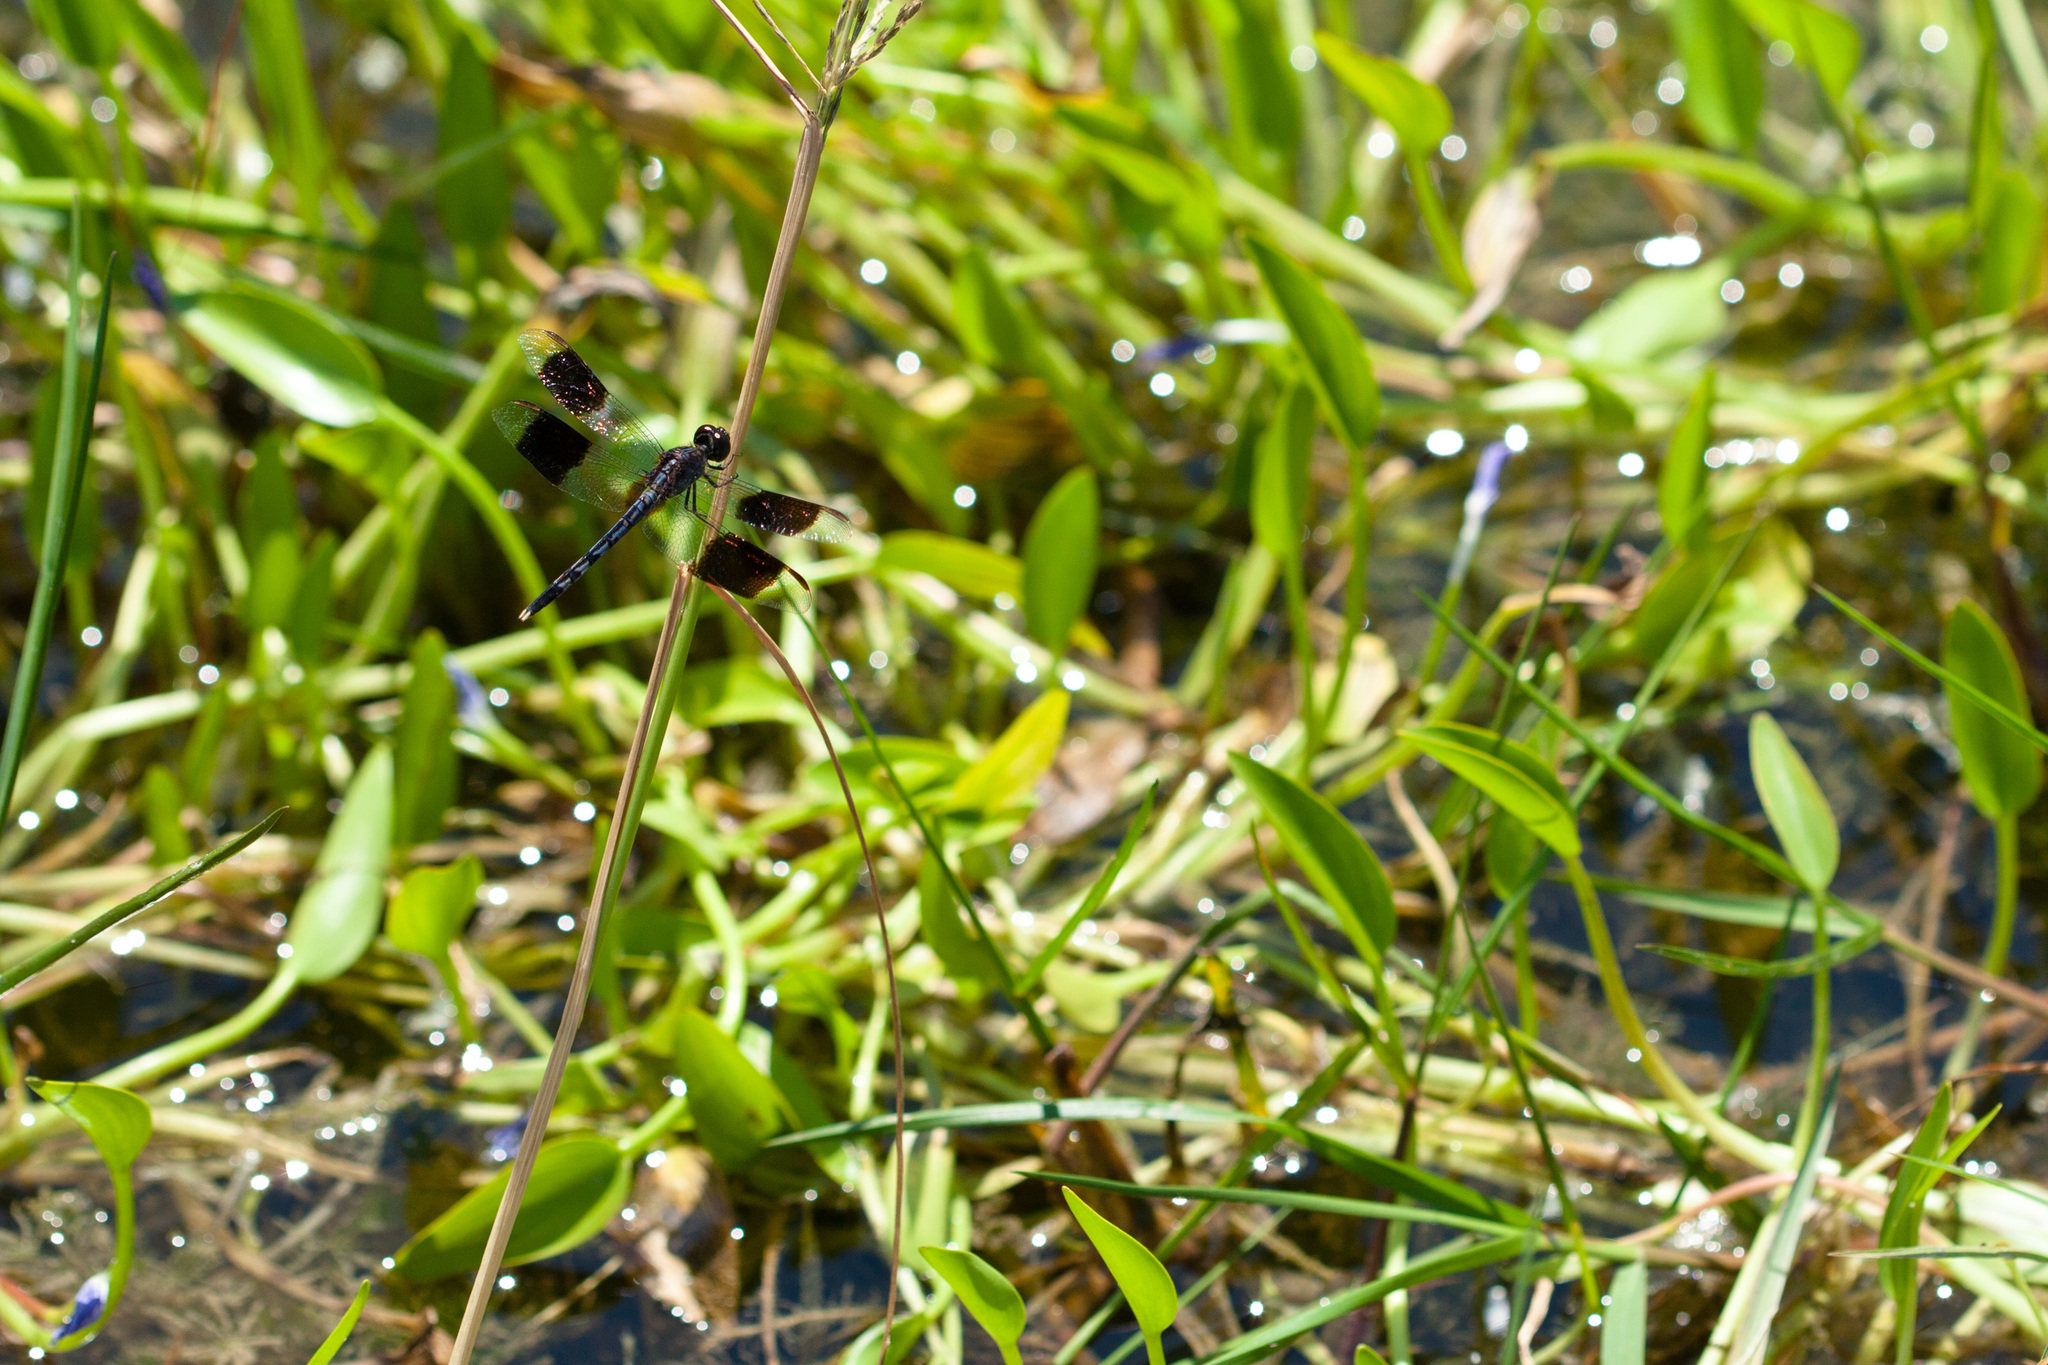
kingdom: Animalia
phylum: Arthropoda
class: Insecta
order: Odonata
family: Libellulidae
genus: Erythrodiplax
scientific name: Erythrodiplax umbrata
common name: Band-winged dragonlet
